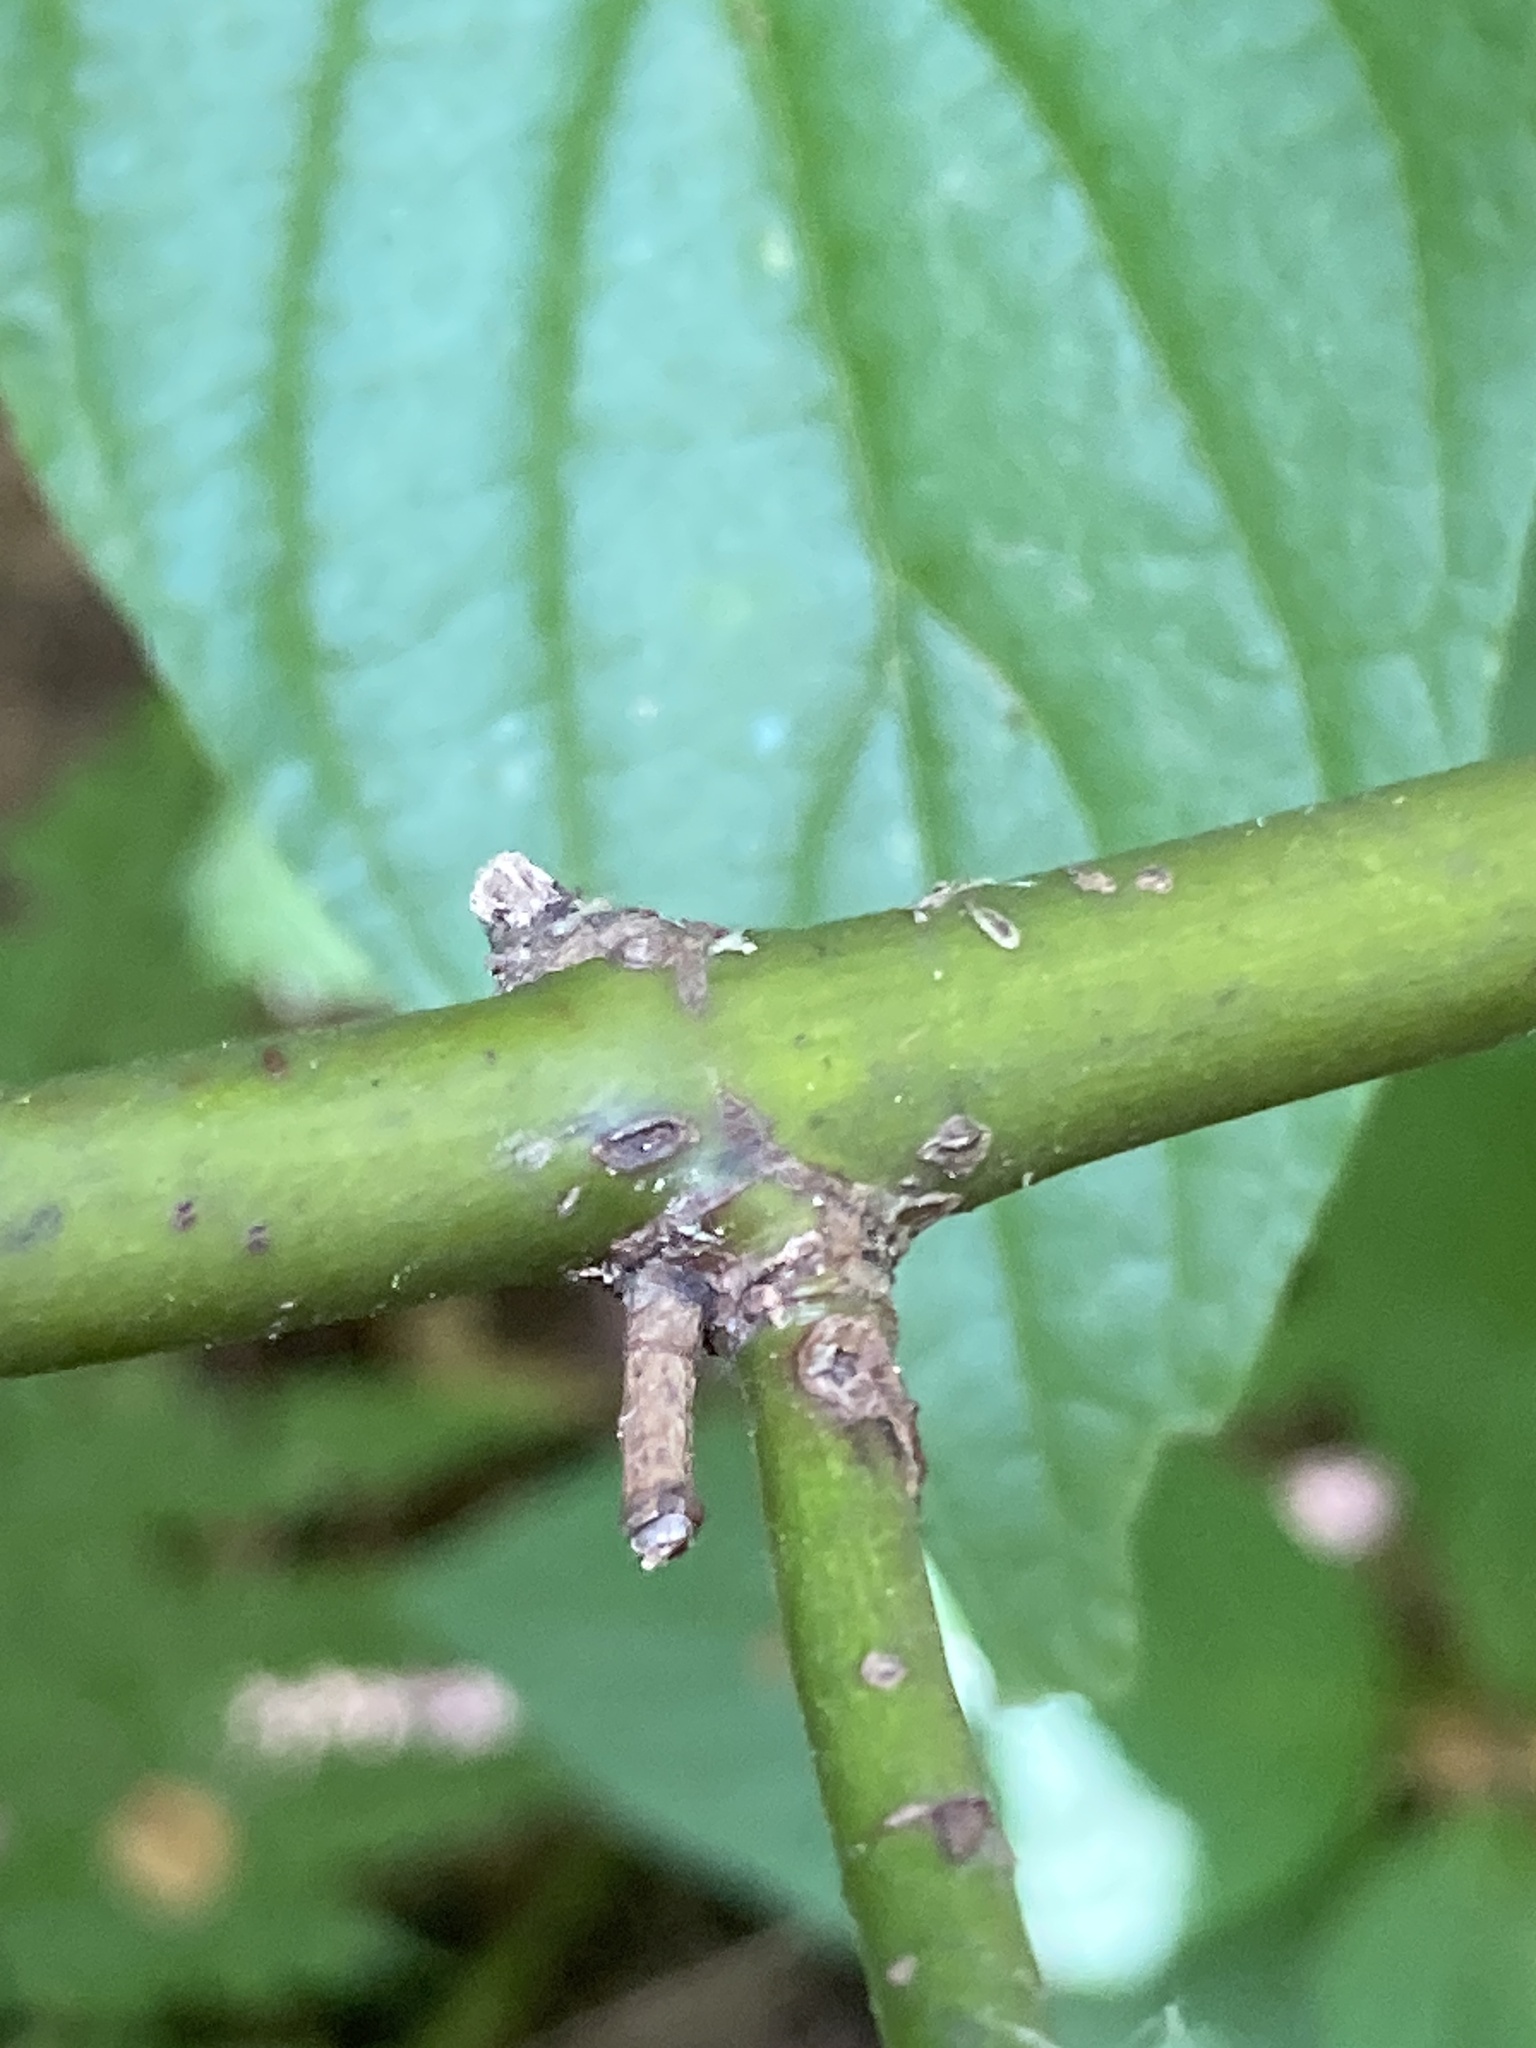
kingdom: Plantae
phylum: Tracheophyta
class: Magnoliopsida
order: Cornales
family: Cornaceae
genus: Cornus
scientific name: Cornus alba
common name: White dogwood
